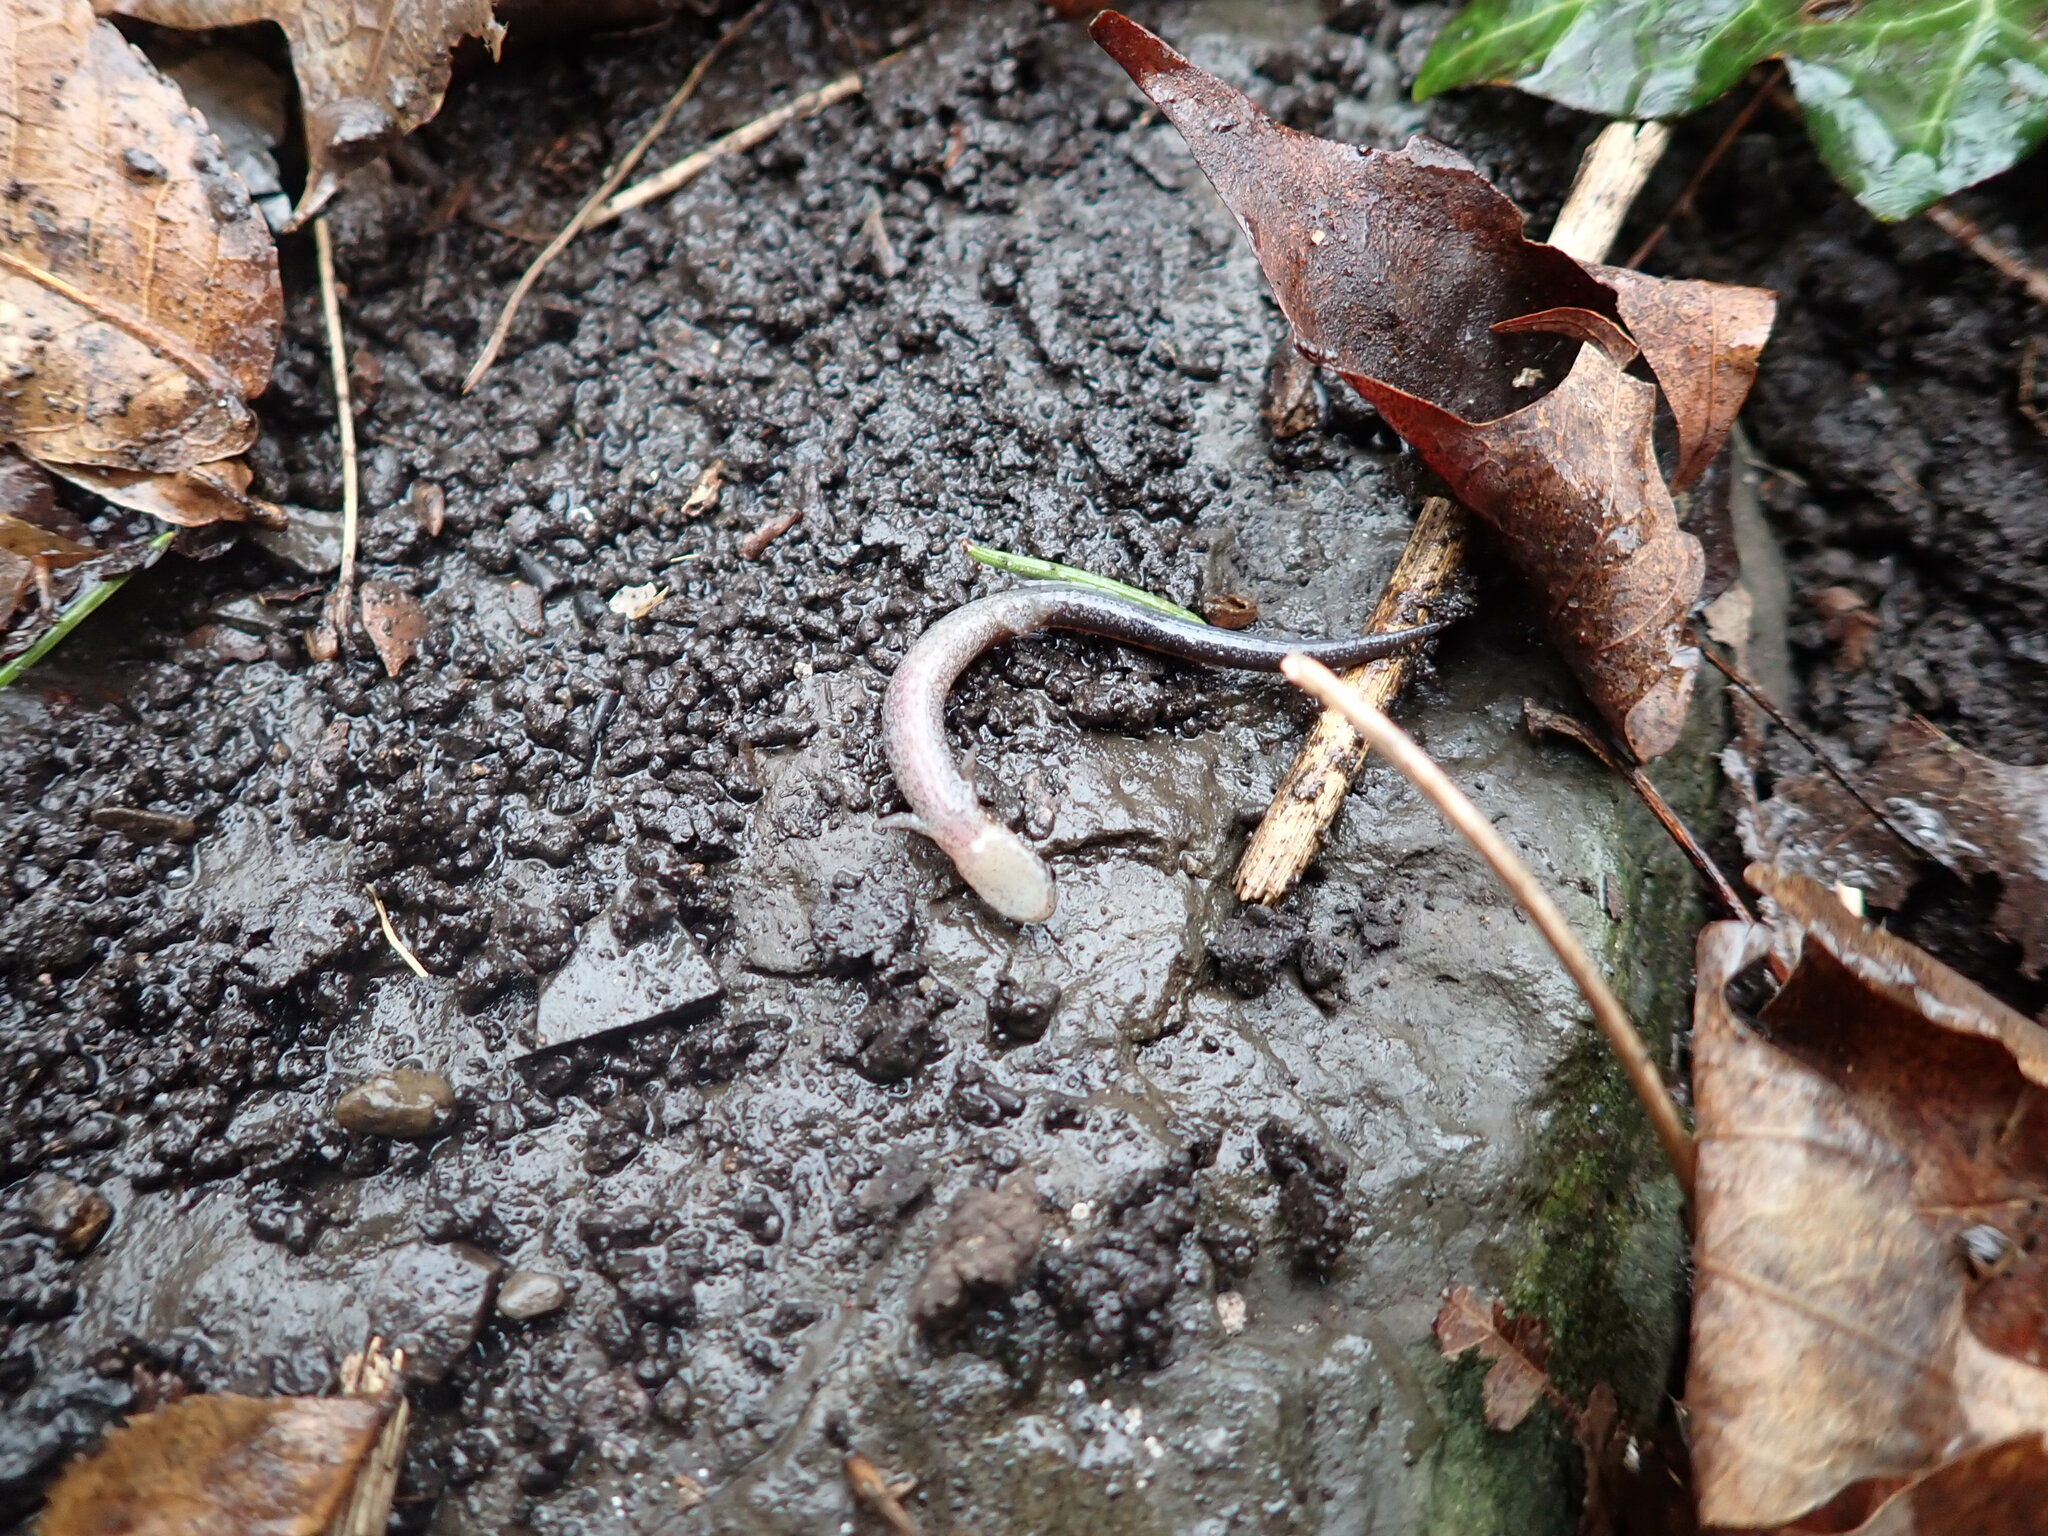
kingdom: Animalia
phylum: Chordata
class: Amphibia
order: Caudata
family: Plethodontidae
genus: Plethodon
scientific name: Plethodon cinereus
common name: Redback salamander
